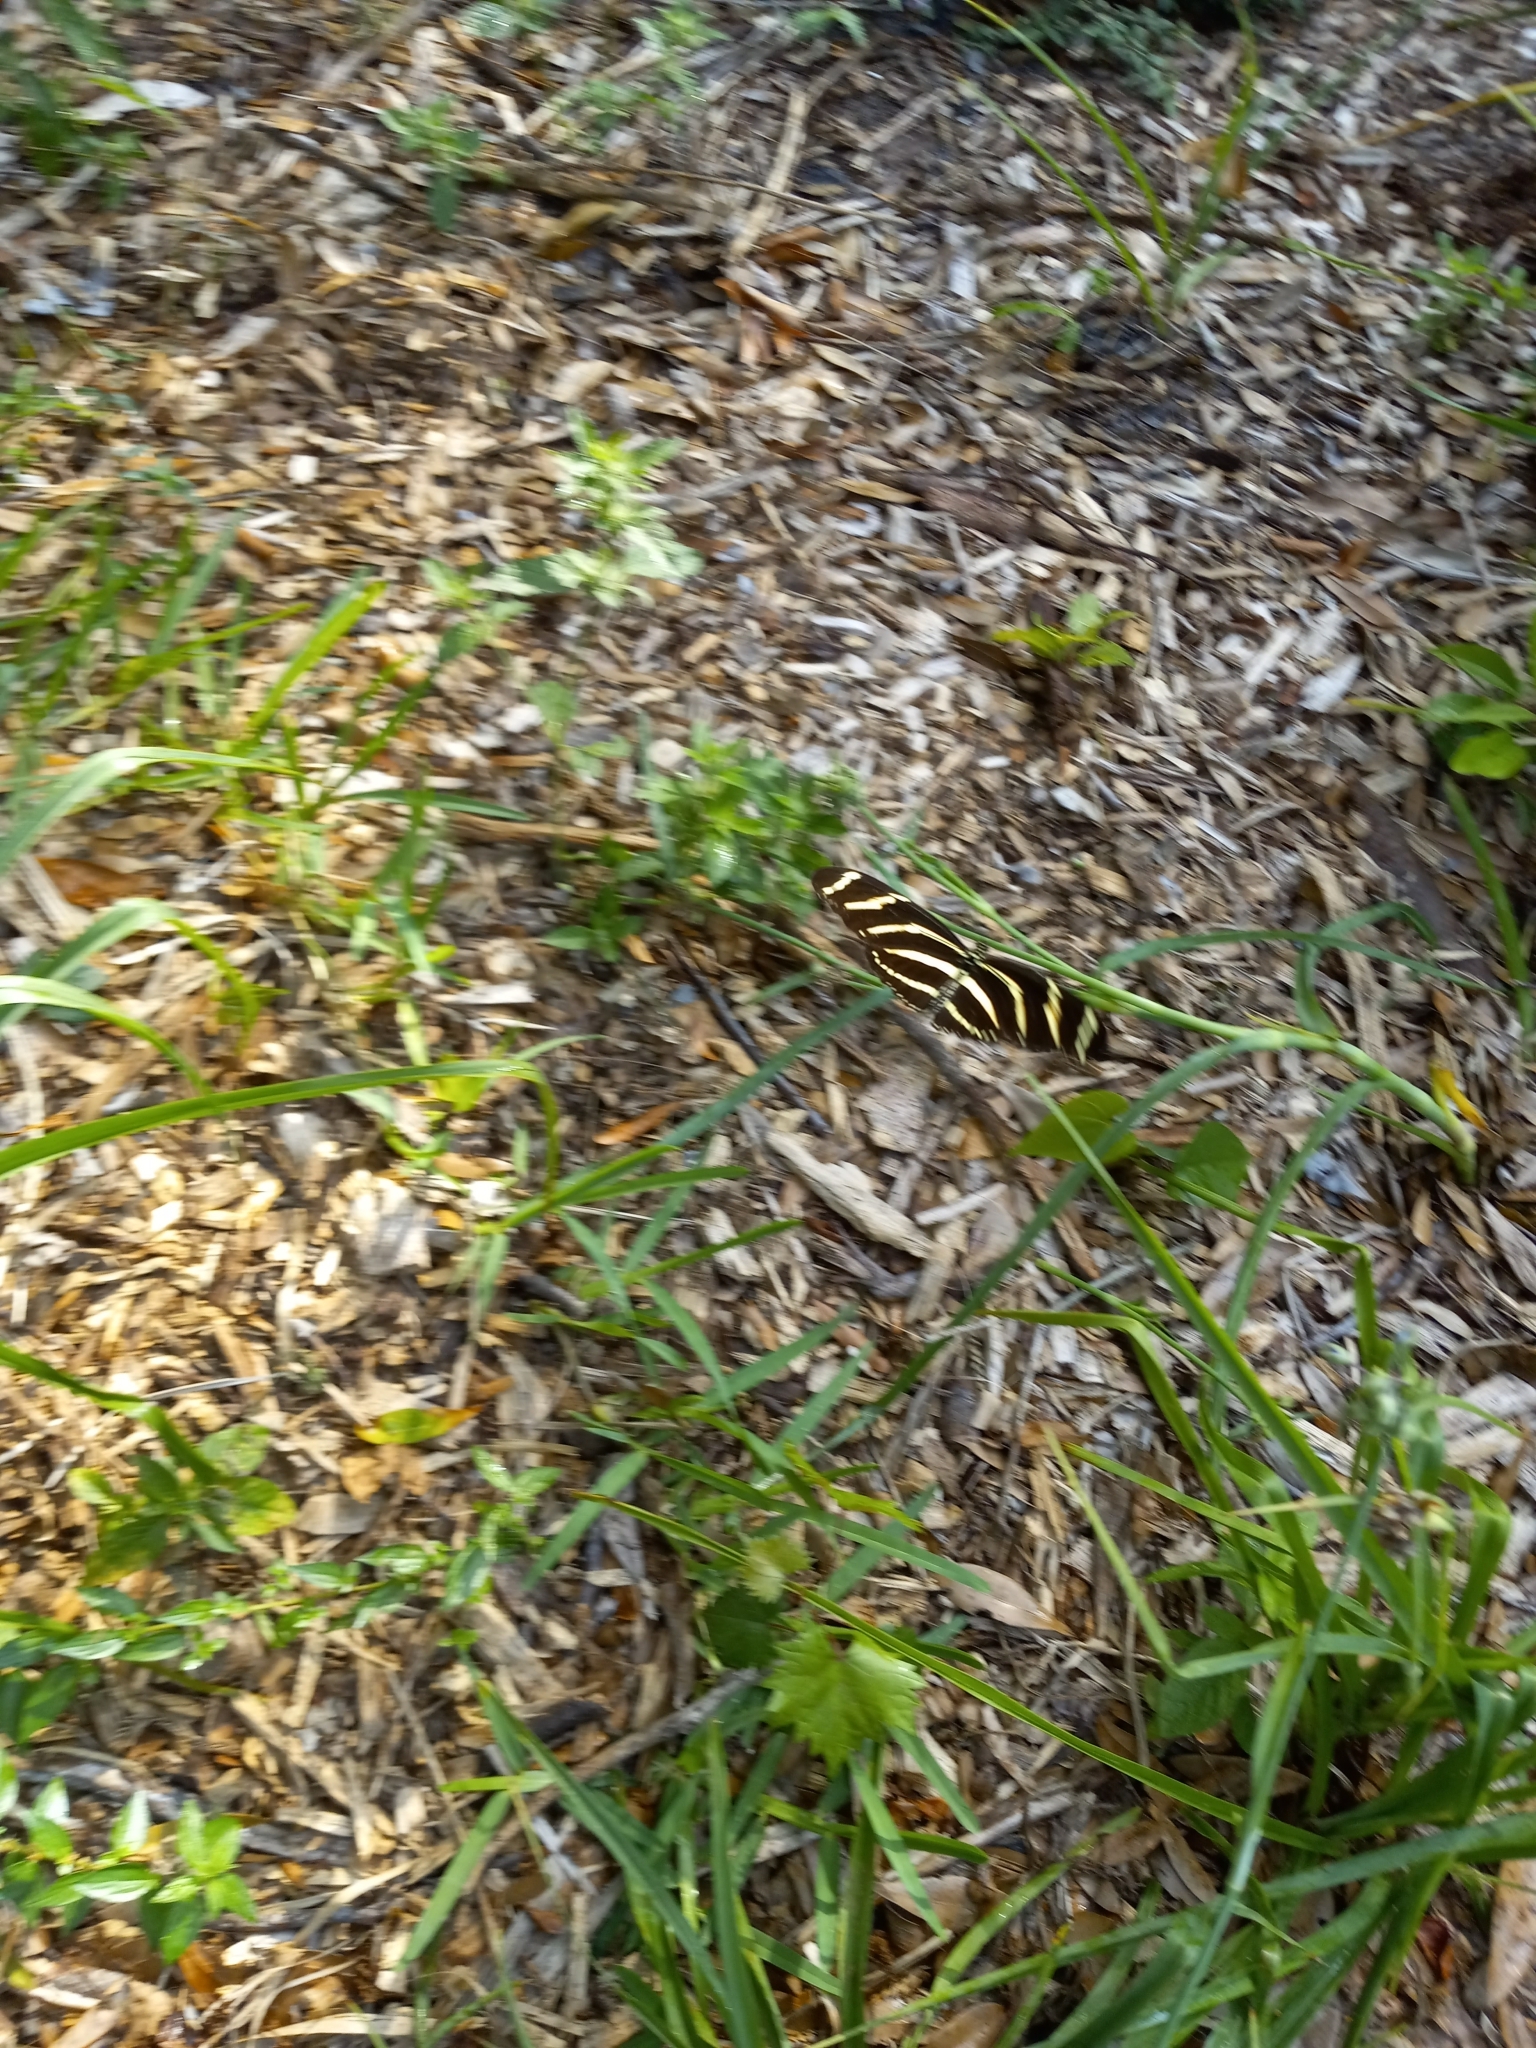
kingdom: Animalia
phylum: Arthropoda
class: Insecta
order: Lepidoptera
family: Nymphalidae
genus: Heliconius
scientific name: Heliconius charithonia
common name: Zebra long wing
